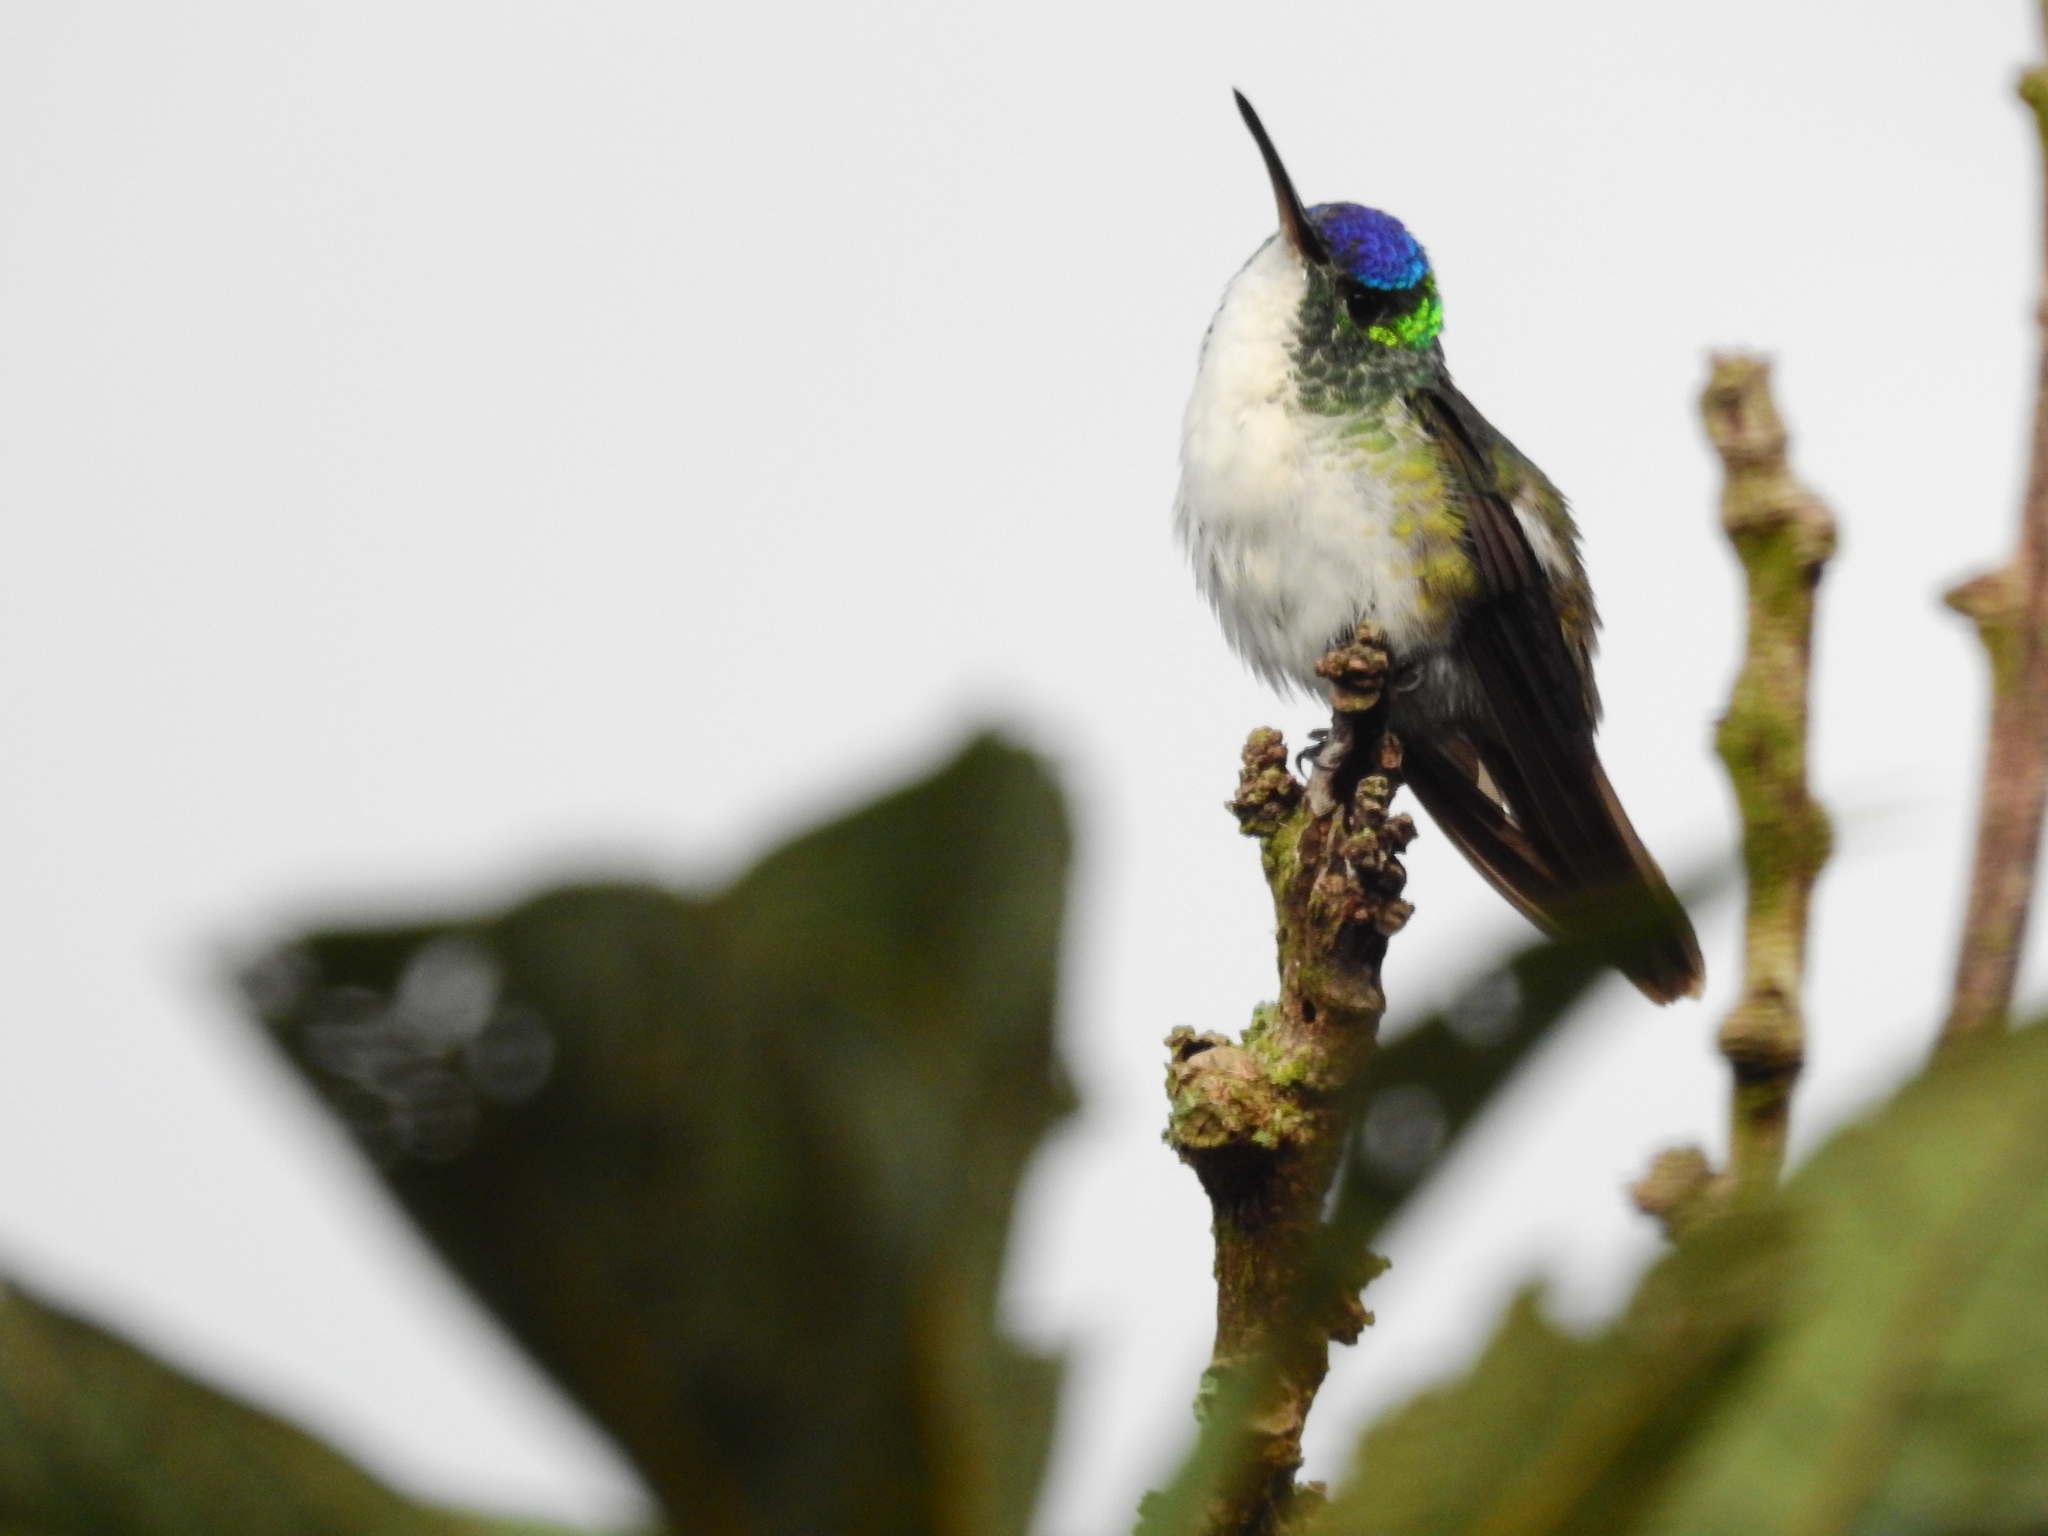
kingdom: Animalia
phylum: Chordata
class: Aves
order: Apodiformes
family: Trochilidae
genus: Uranomitra
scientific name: Uranomitra franciae
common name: Andean emerald
